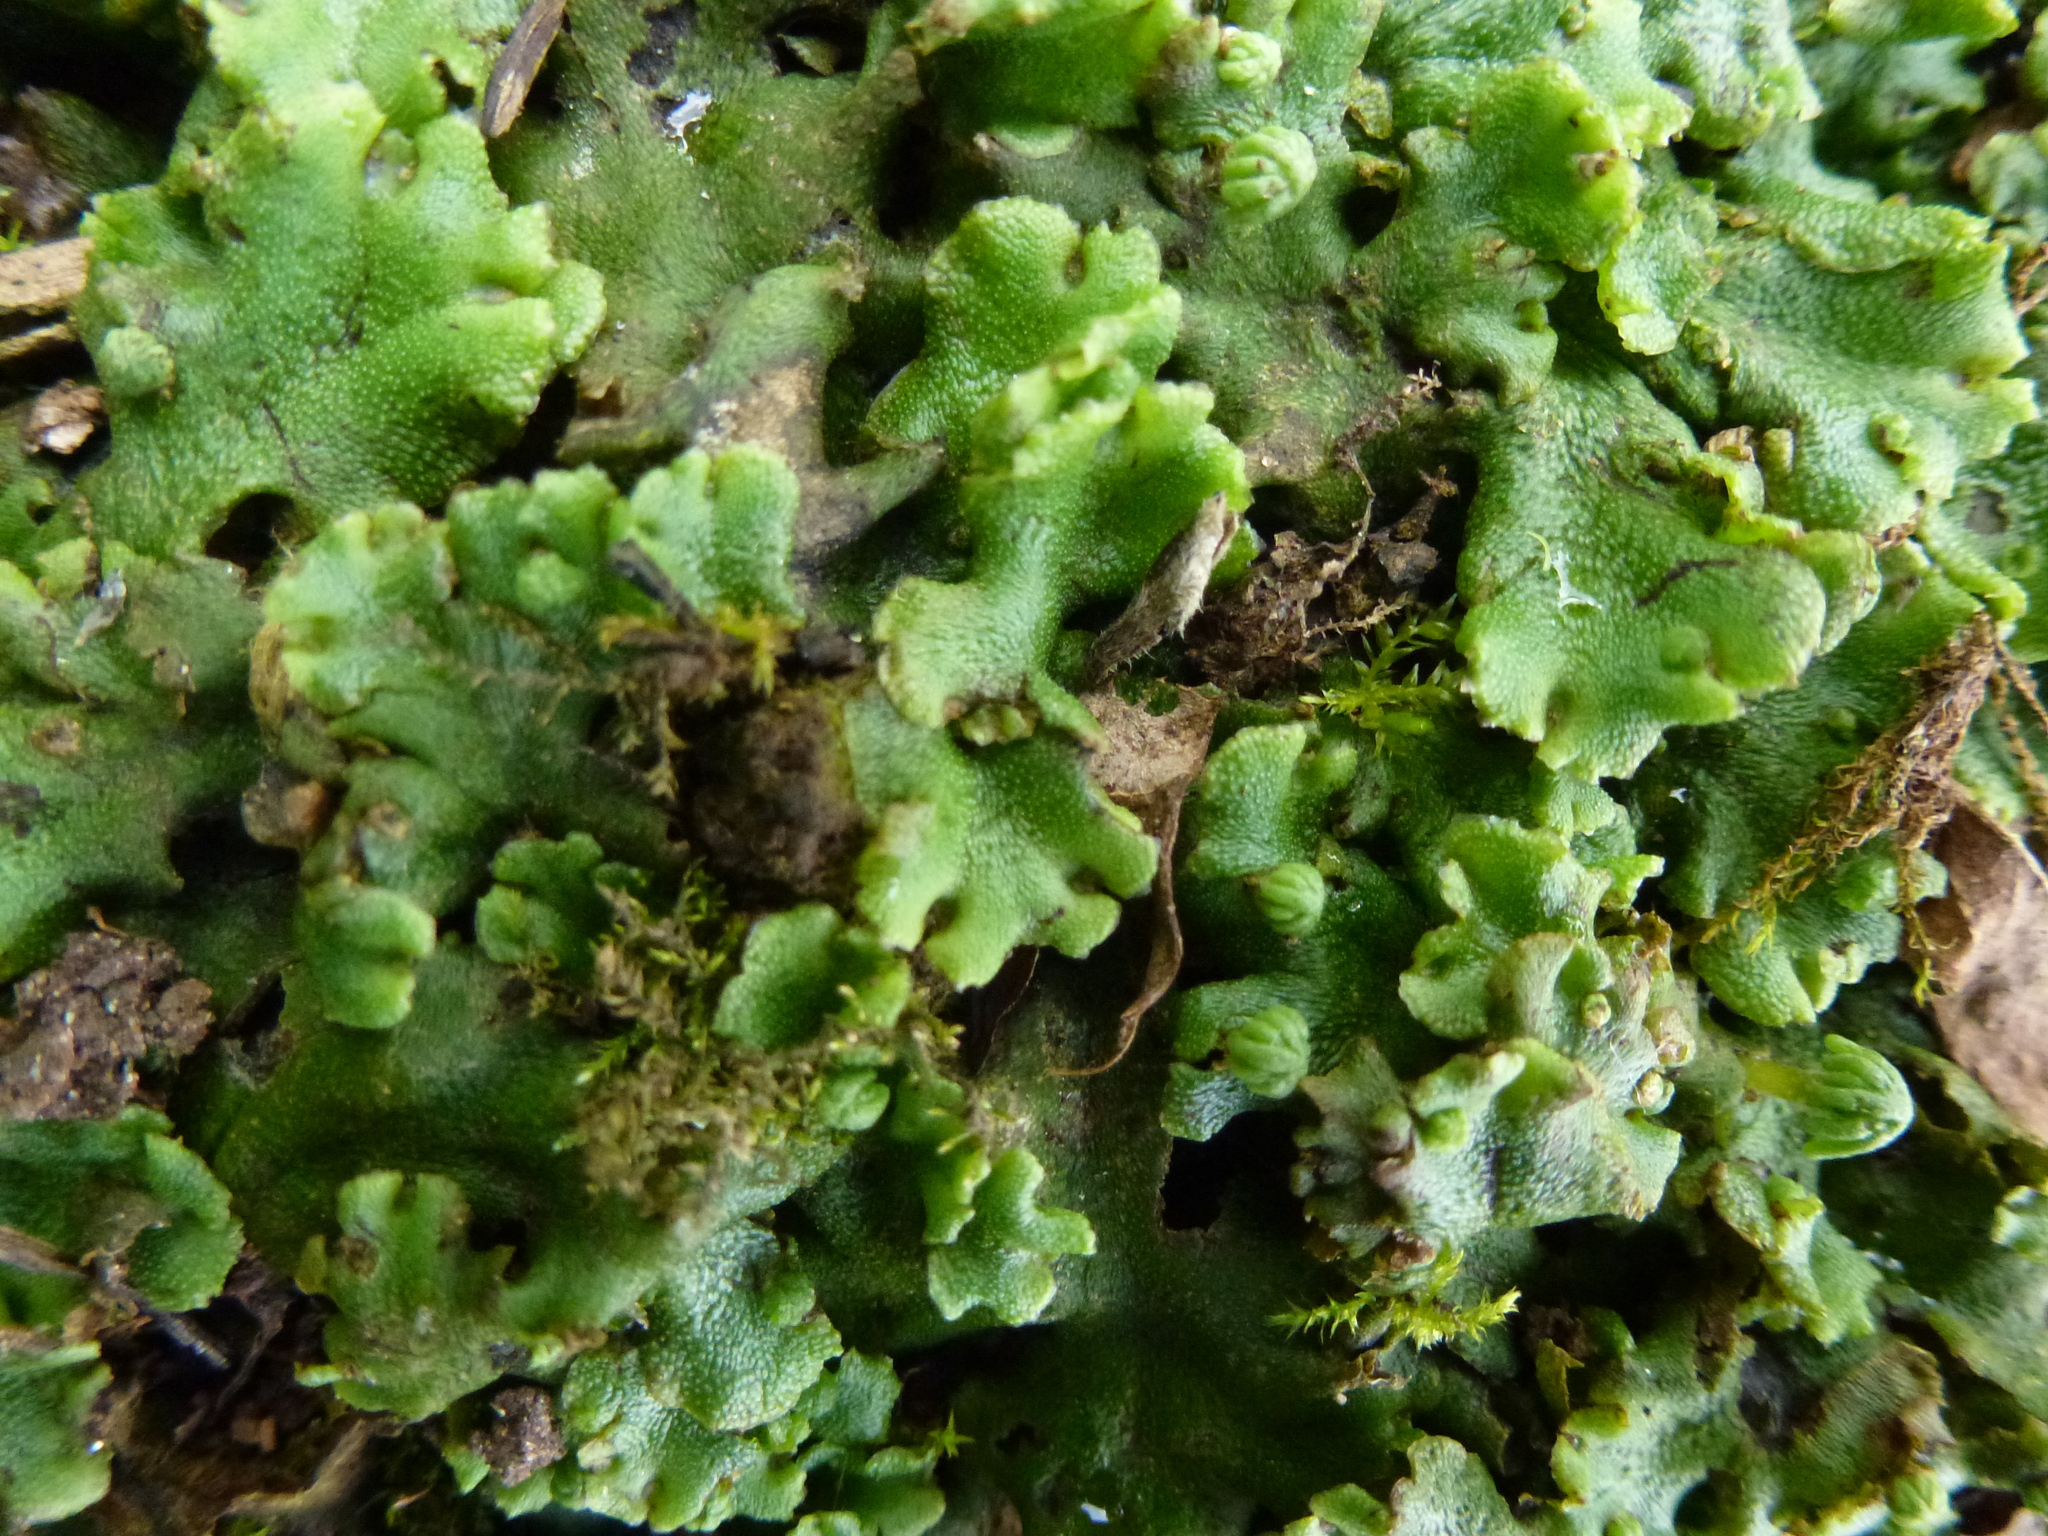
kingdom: Plantae
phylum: Marchantiophyta
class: Marchantiopsida
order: Marchantiales
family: Marchantiaceae
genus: Marchantia
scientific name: Marchantia polymorpha
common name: Common liverwort
